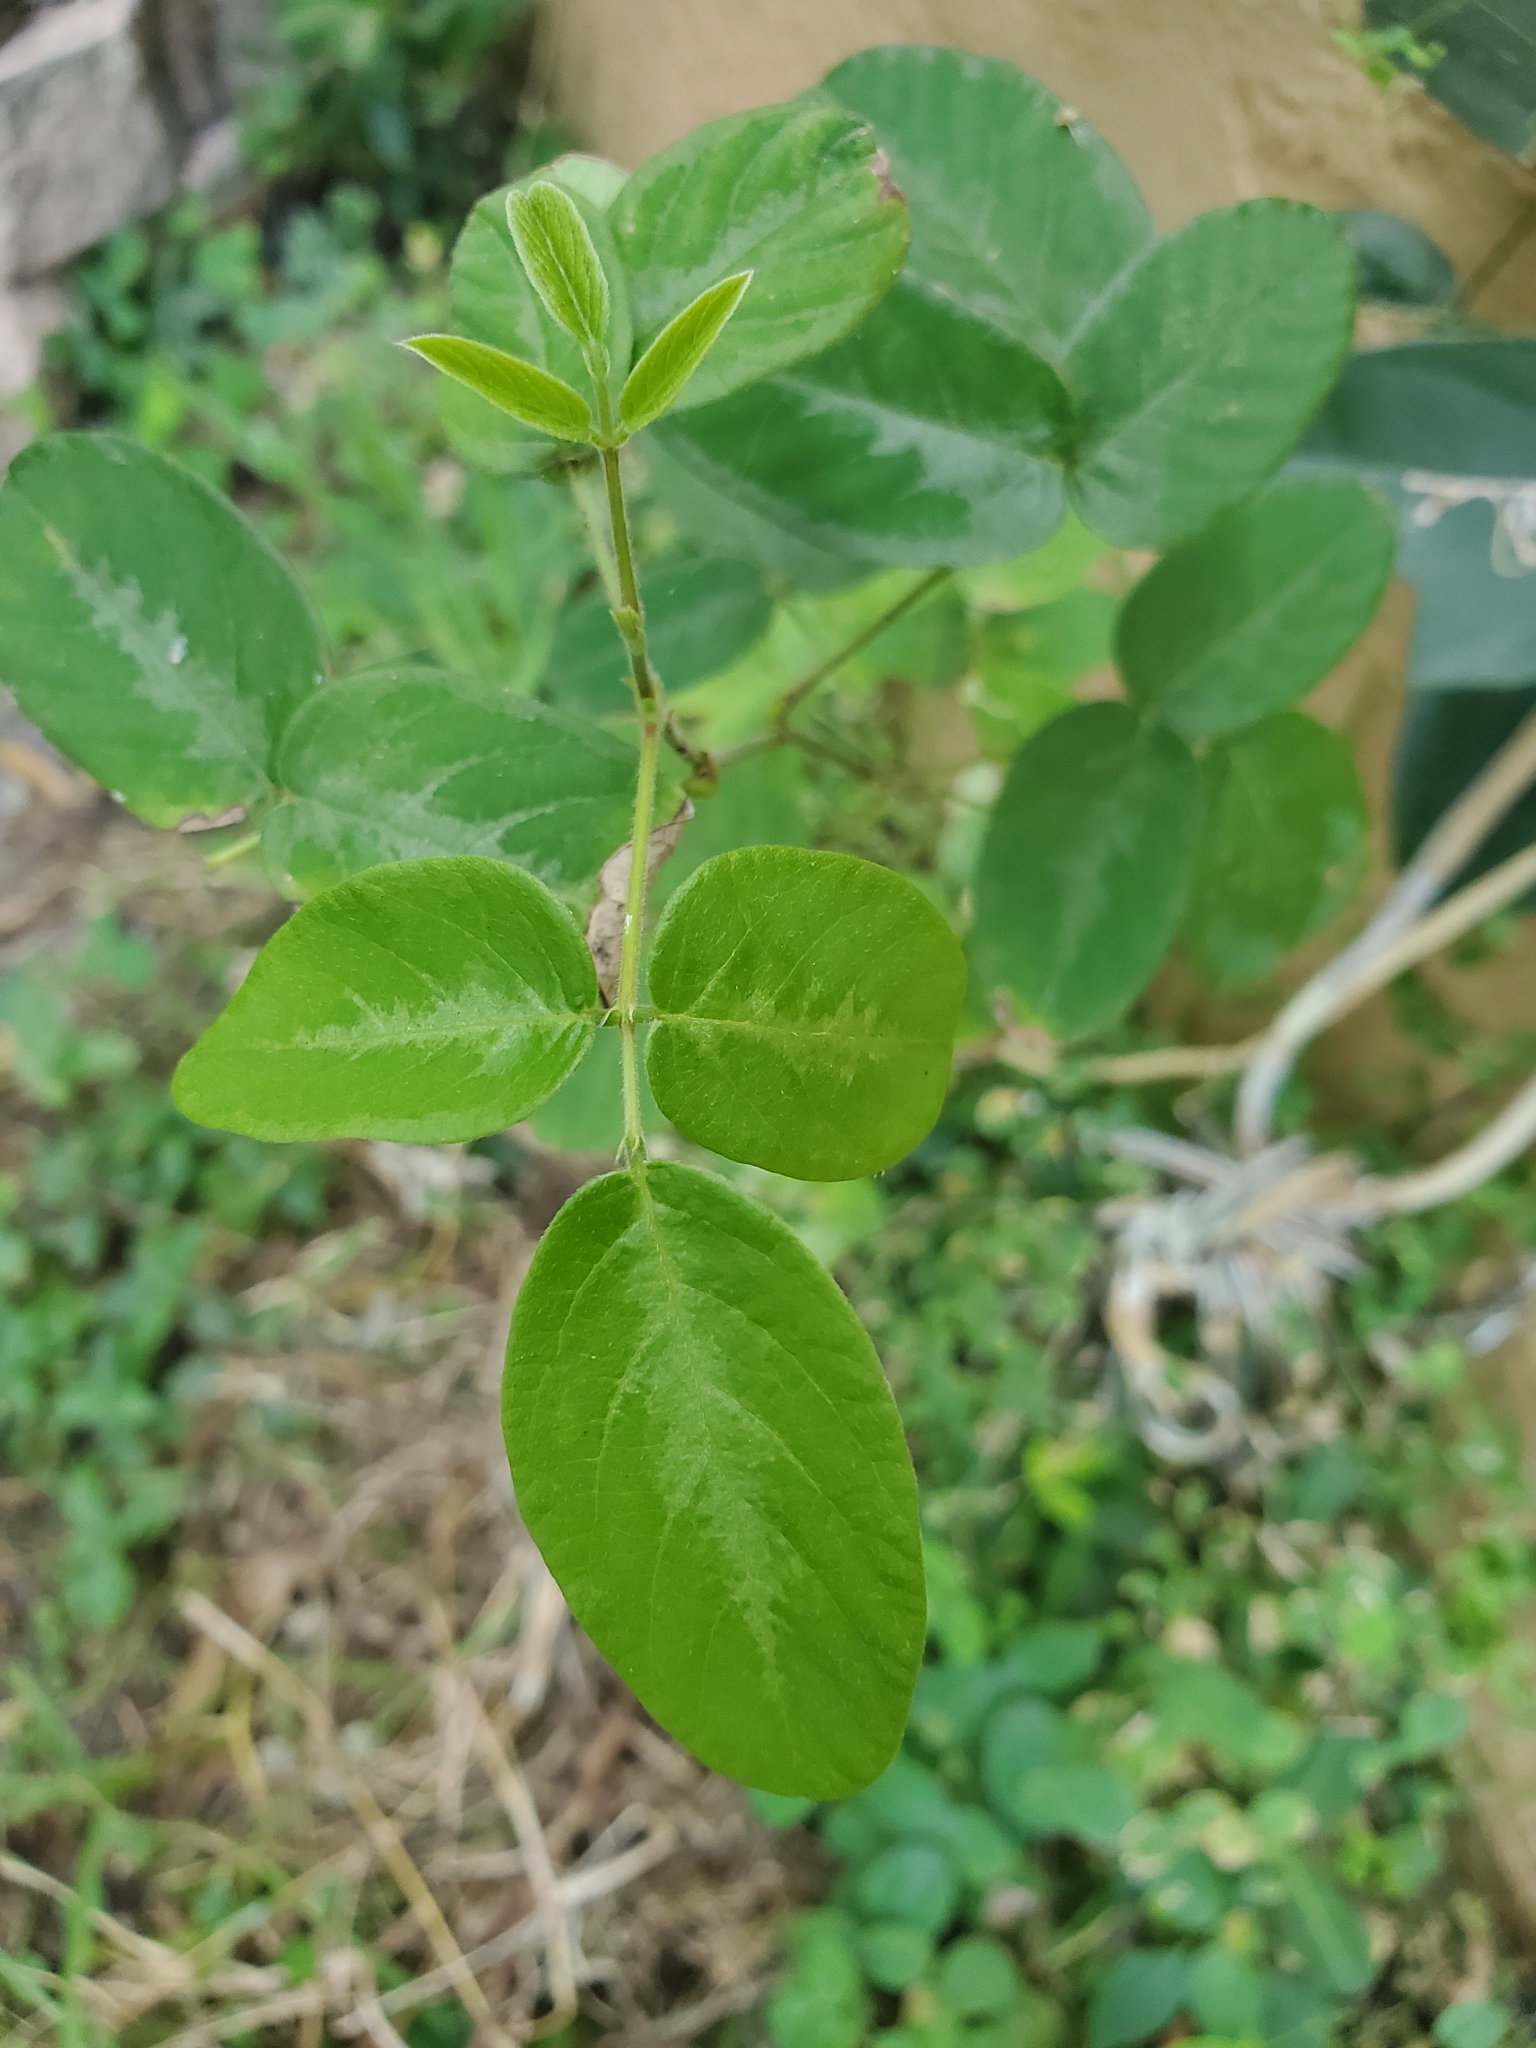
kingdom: Plantae
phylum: Tracheophyta
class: Magnoliopsida
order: Fabales
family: Fabaceae
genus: Desmodium
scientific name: Desmodium incanum
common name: Tickclover
